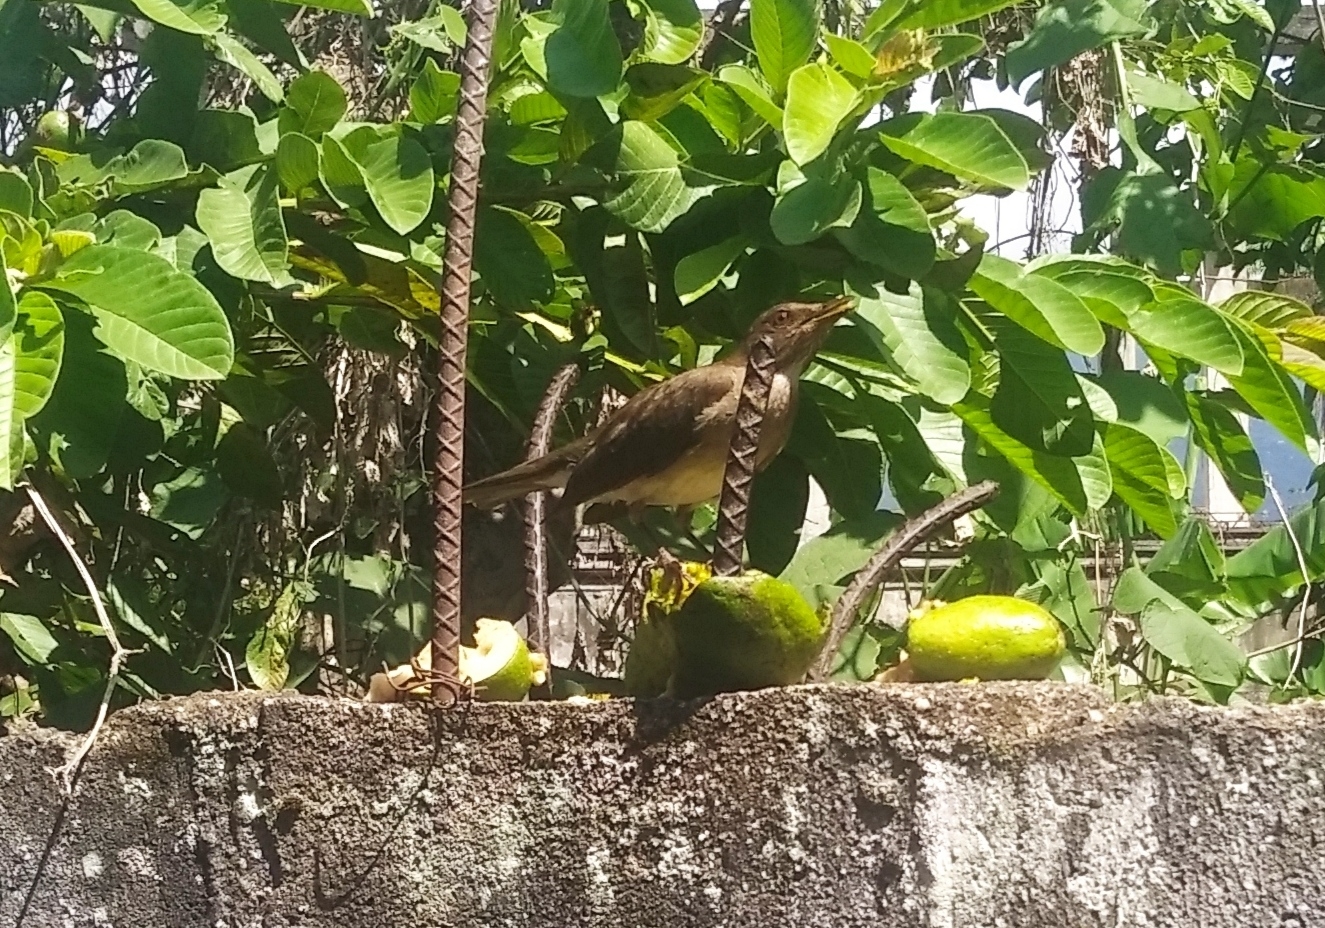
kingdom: Animalia
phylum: Chordata
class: Aves
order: Passeriformes
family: Turdidae
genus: Turdus
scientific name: Turdus ignobilis
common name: Black-billed thrush
